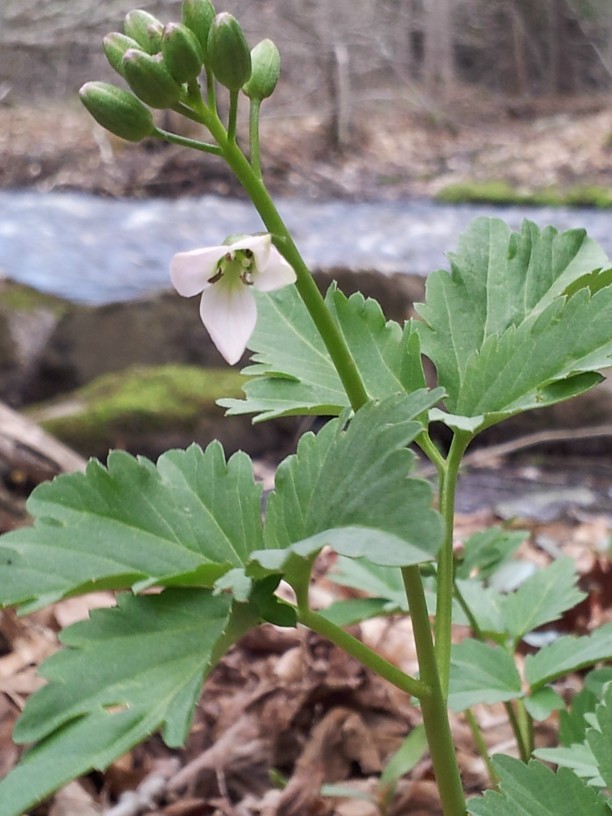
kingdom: Plantae
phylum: Tracheophyta
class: Magnoliopsida
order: Brassicales
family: Brassicaceae
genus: Cardamine
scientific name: Cardamine diphylla
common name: Broad-leaved toothwort
